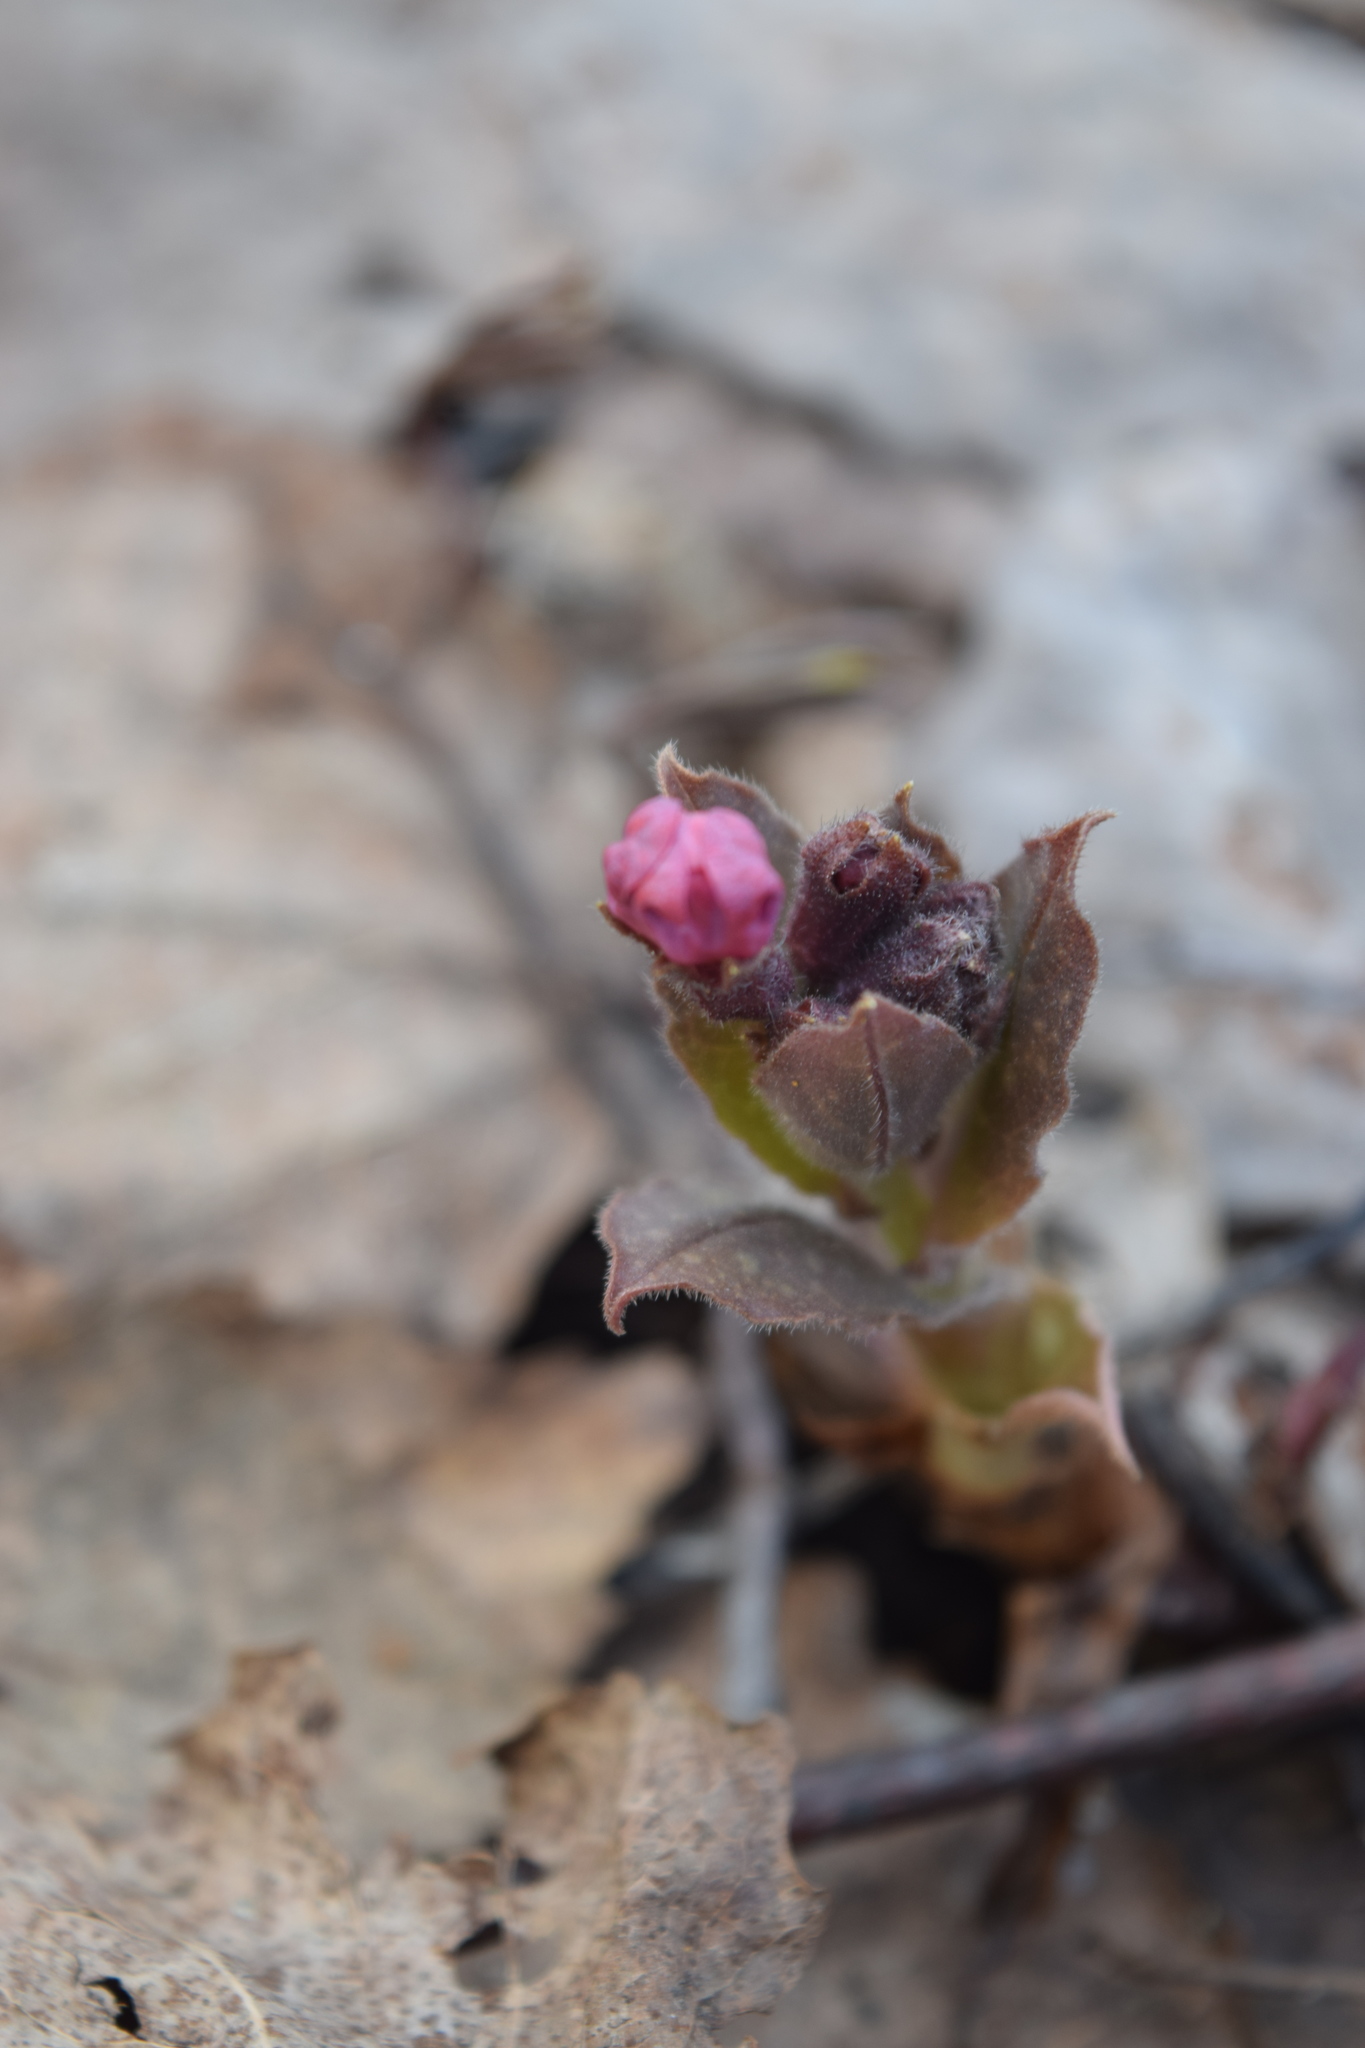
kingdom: Plantae
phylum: Tracheophyta
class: Magnoliopsida
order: Boraginales
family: Boraginaceae
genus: Pulmonaria
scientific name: Pulmonaria obscura
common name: Suffolk lungwort
